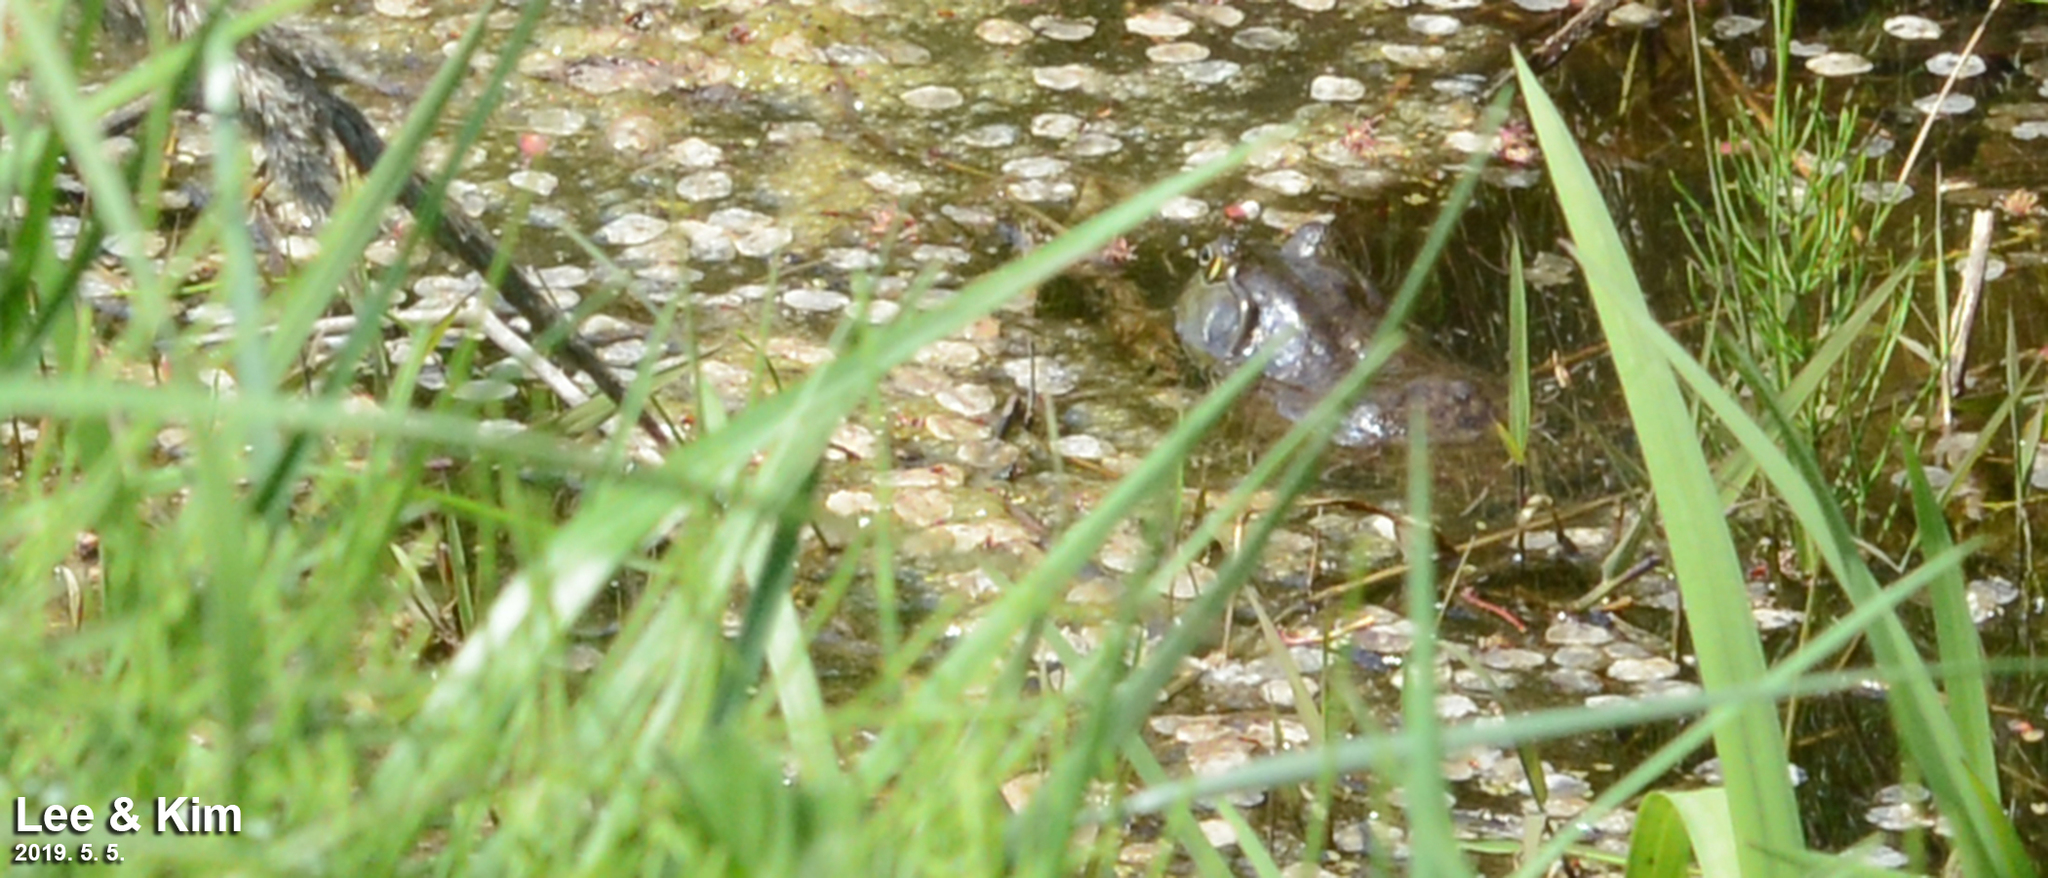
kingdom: Animalia
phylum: Chordata
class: Amphibia
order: Anura
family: Ranidae
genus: Lithobates
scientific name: Lithobates catesbeianus
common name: American bullfrog
